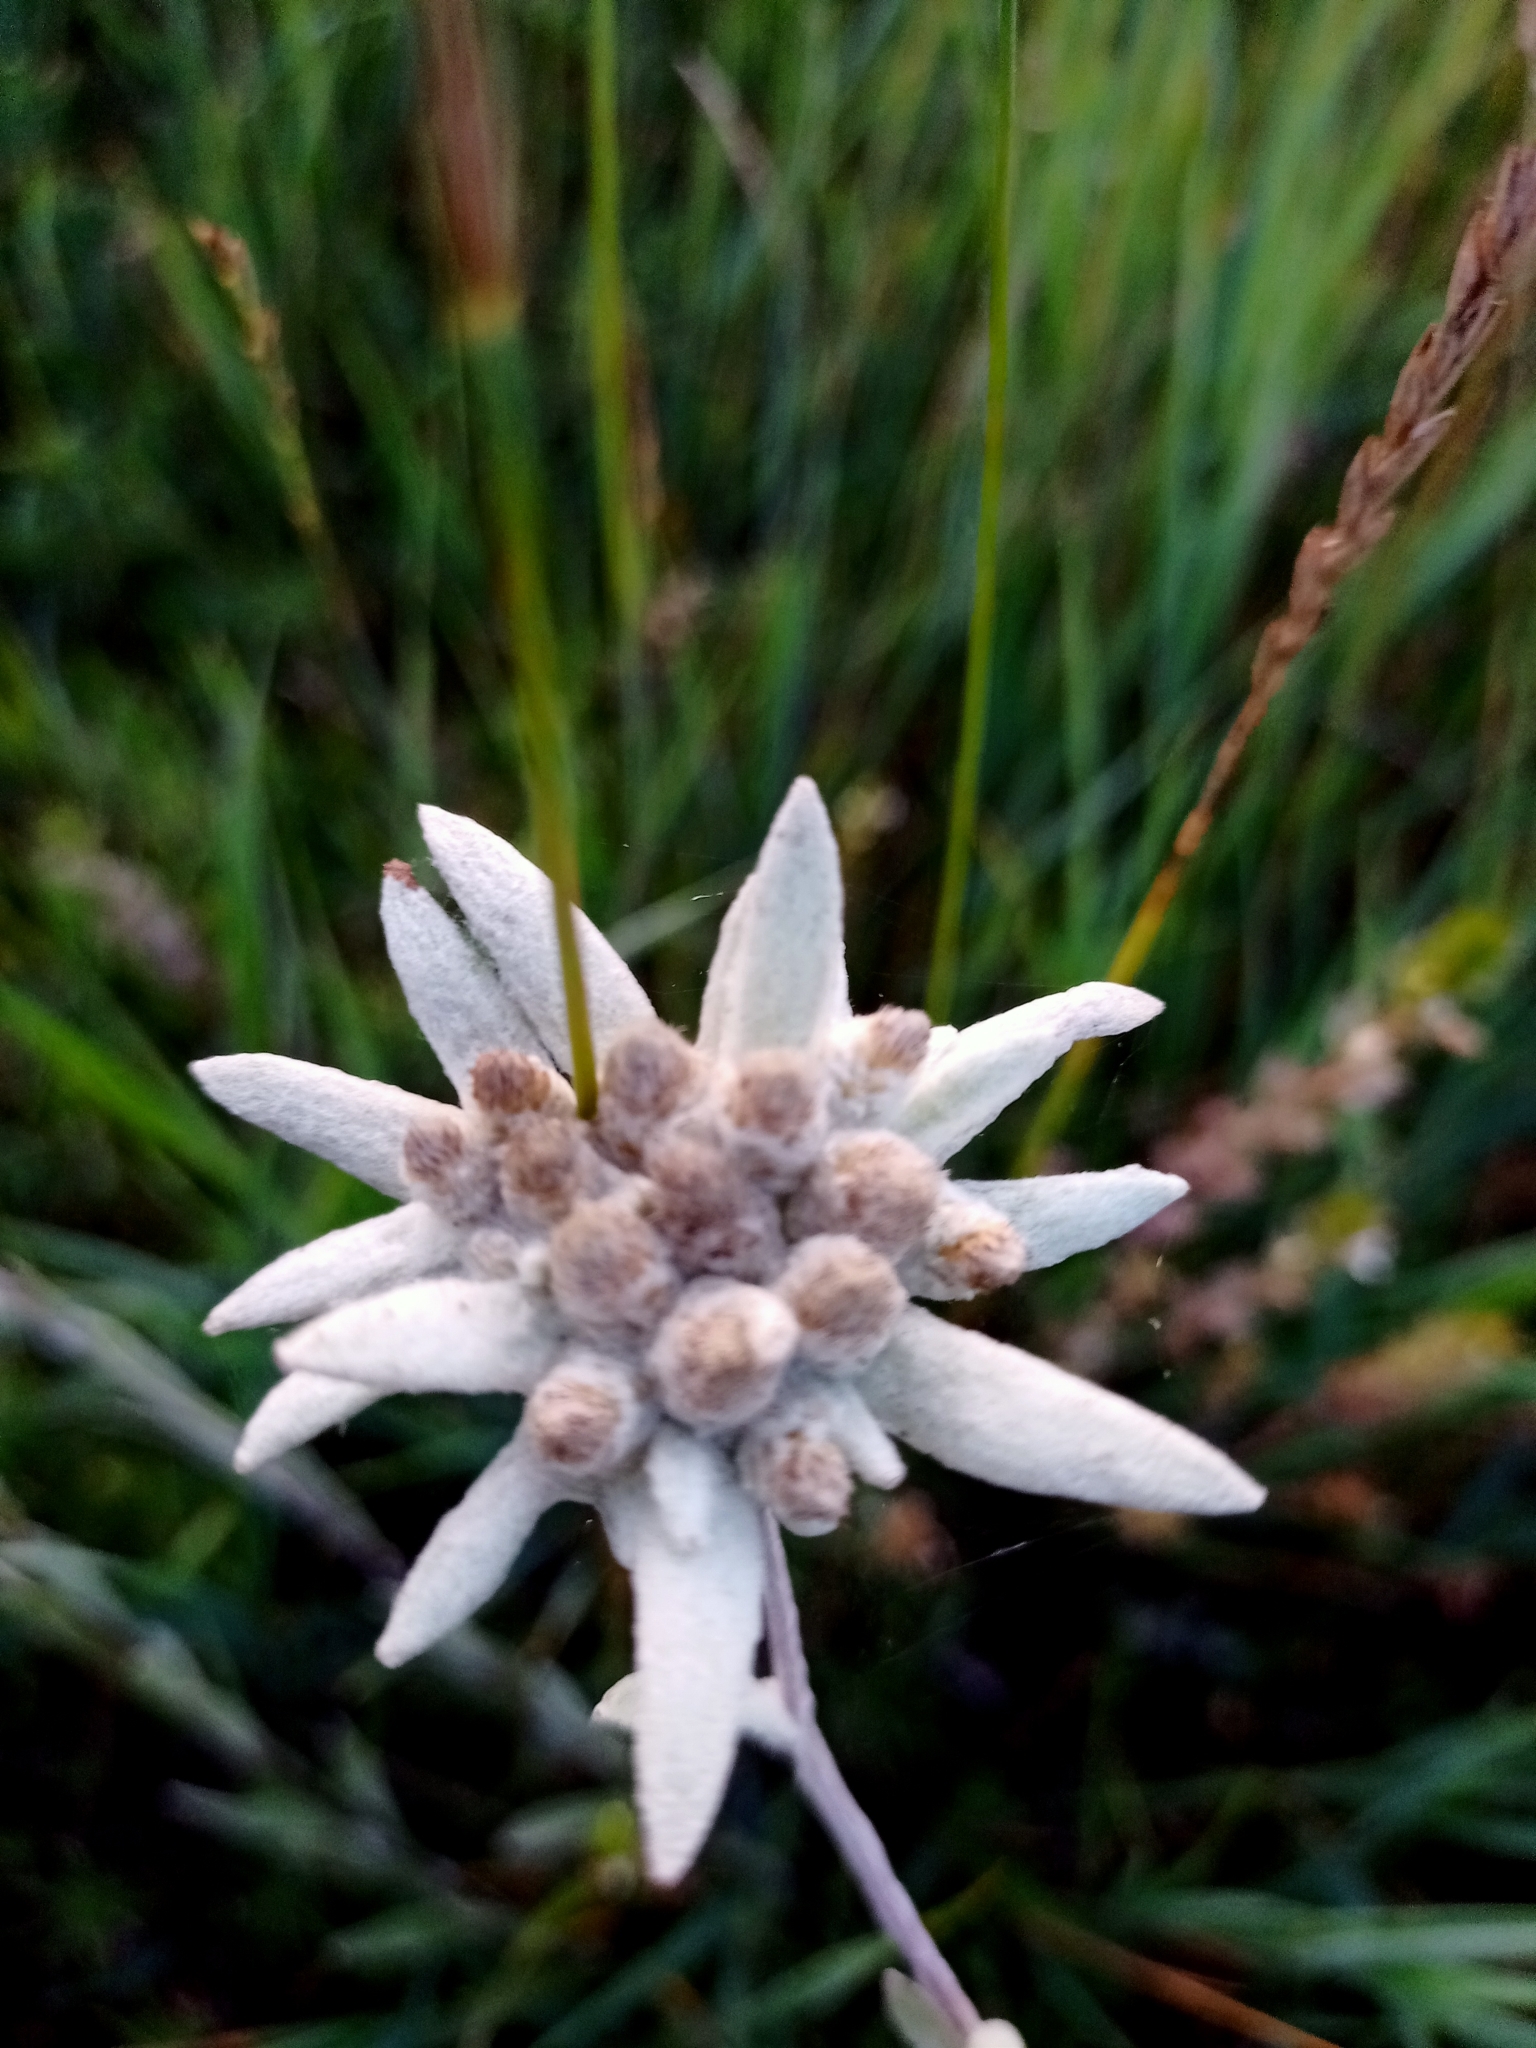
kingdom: Plantae
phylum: Tracheophyta
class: Magnoliopsida
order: Asterales
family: Asteraceae
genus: Leontopodium
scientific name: Leontopodium conglobatum
